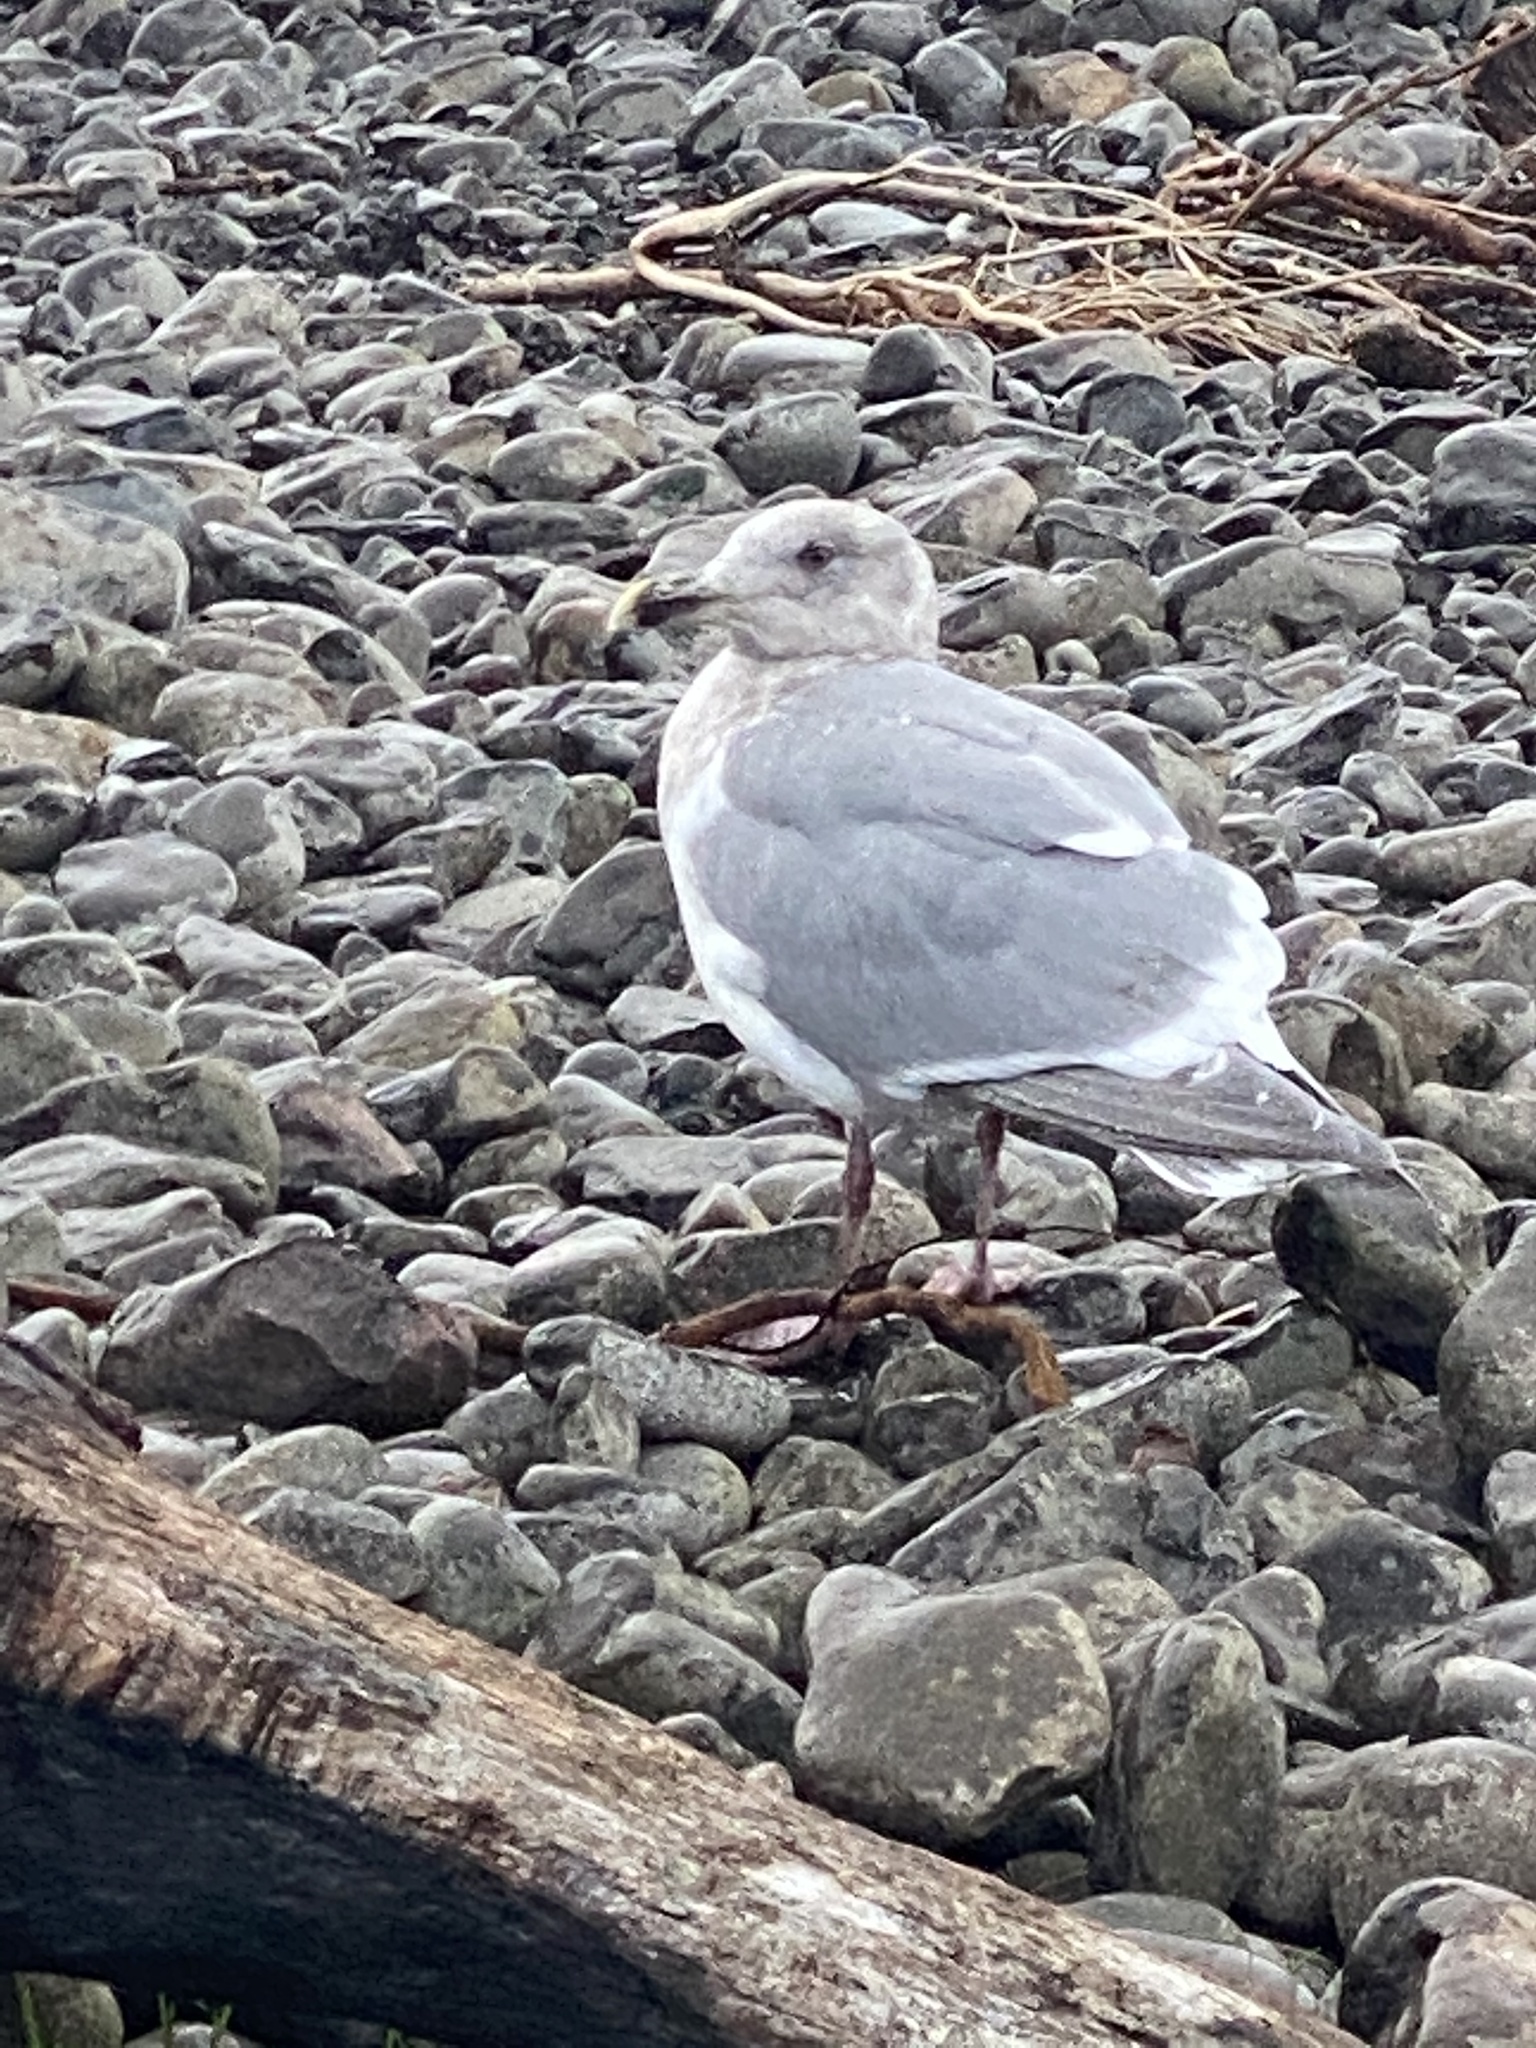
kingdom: Animalia
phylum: Chordata
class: Aves
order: Charadriiformes
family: Laridae
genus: Larus
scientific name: Larus
